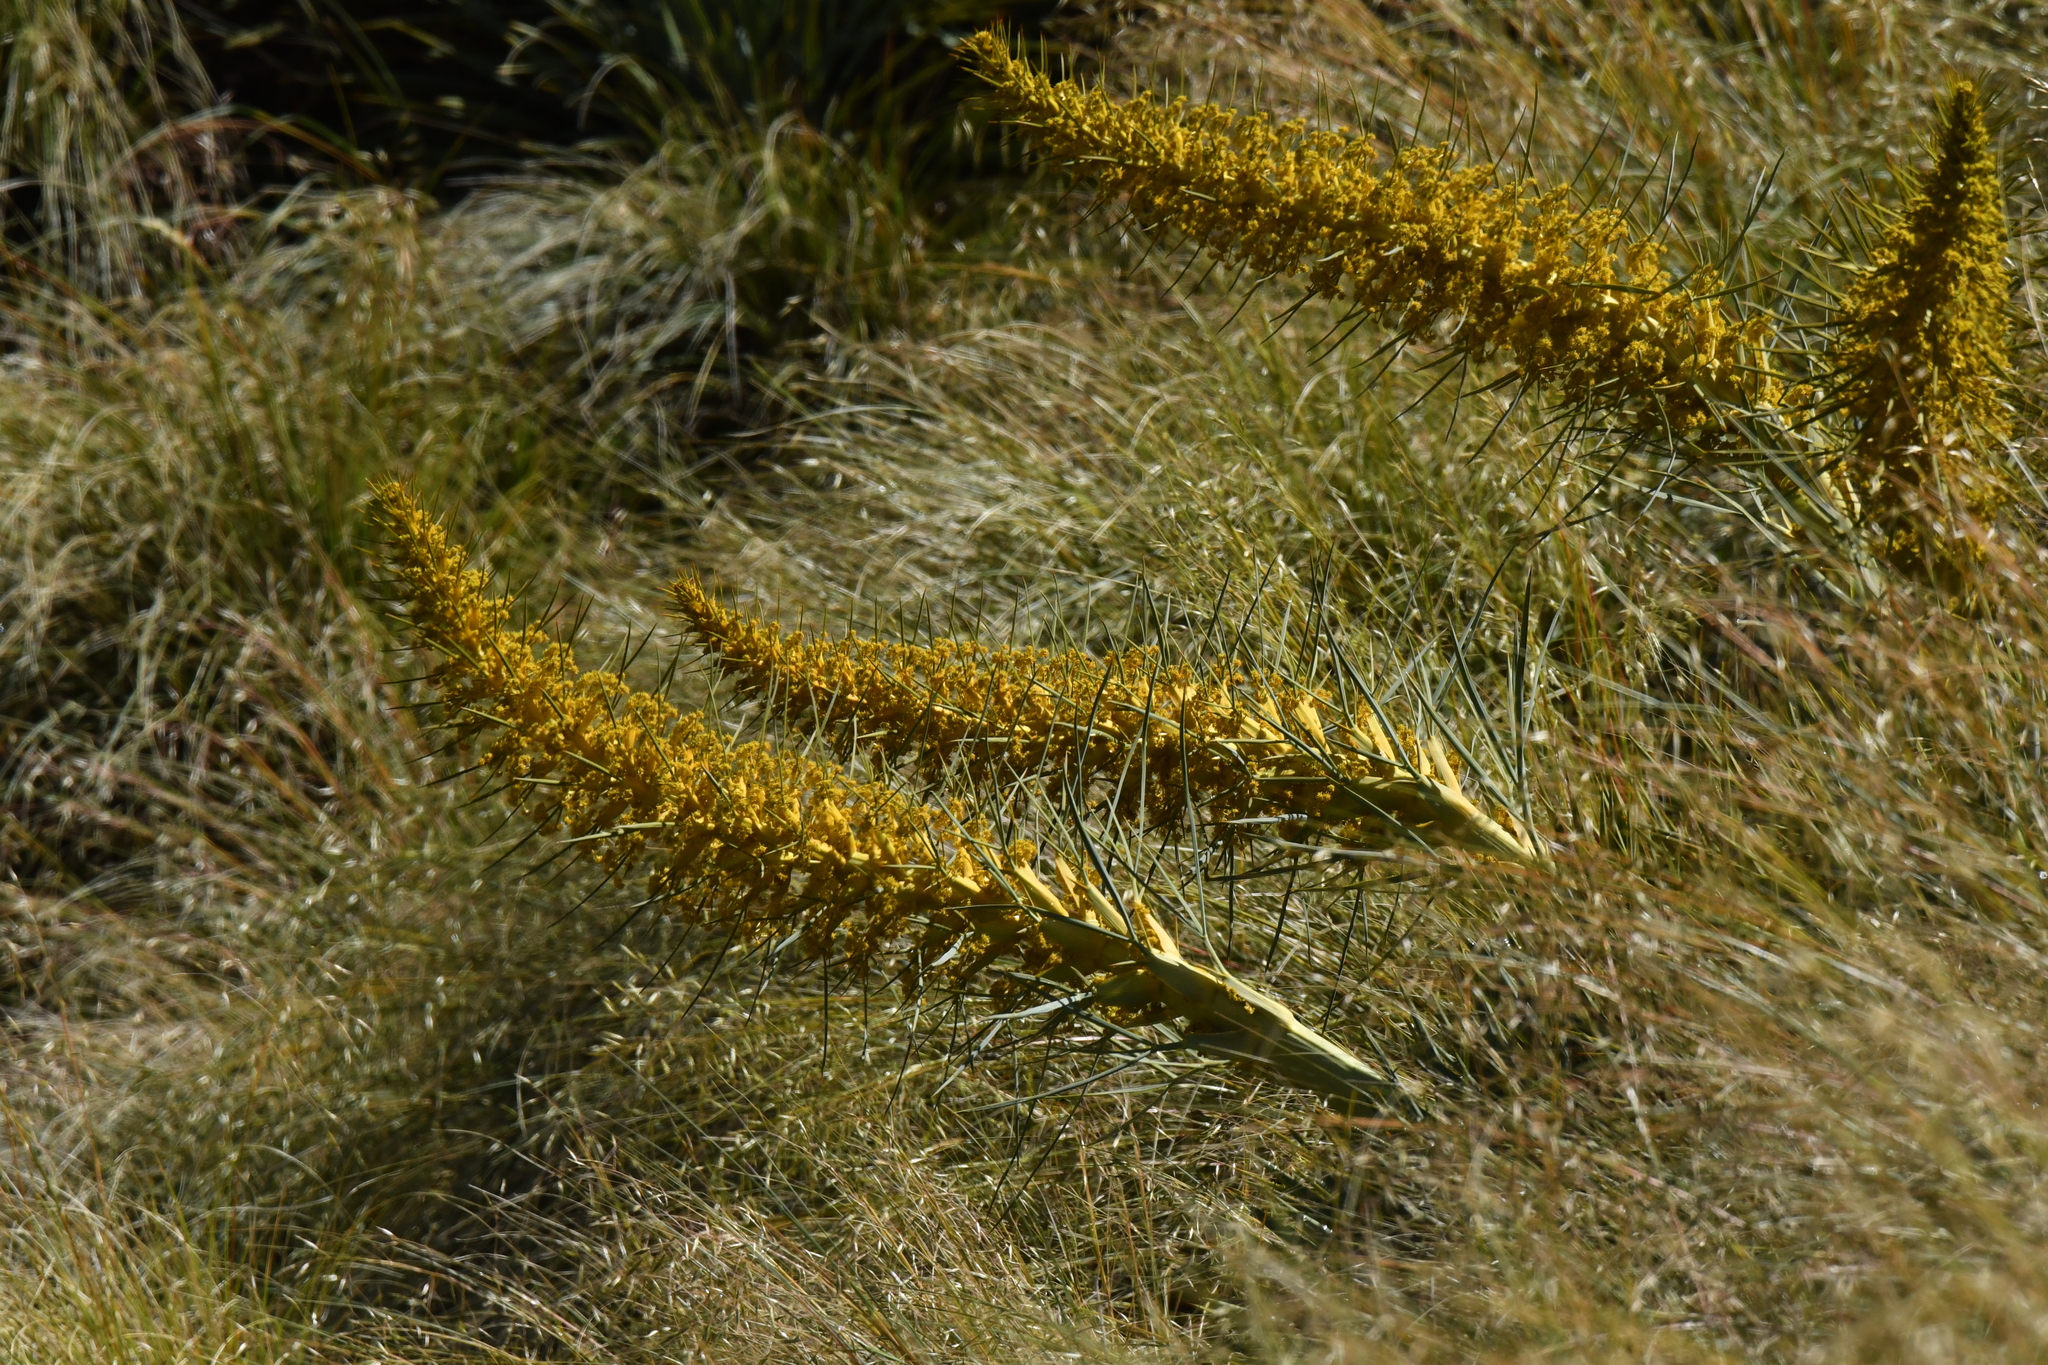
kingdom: Plantae
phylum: Tracheophyta
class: Magnoliopsida
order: Apiales
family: Apiaceae
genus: Aciphylla
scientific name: Aciphylla scott-thomsonii
